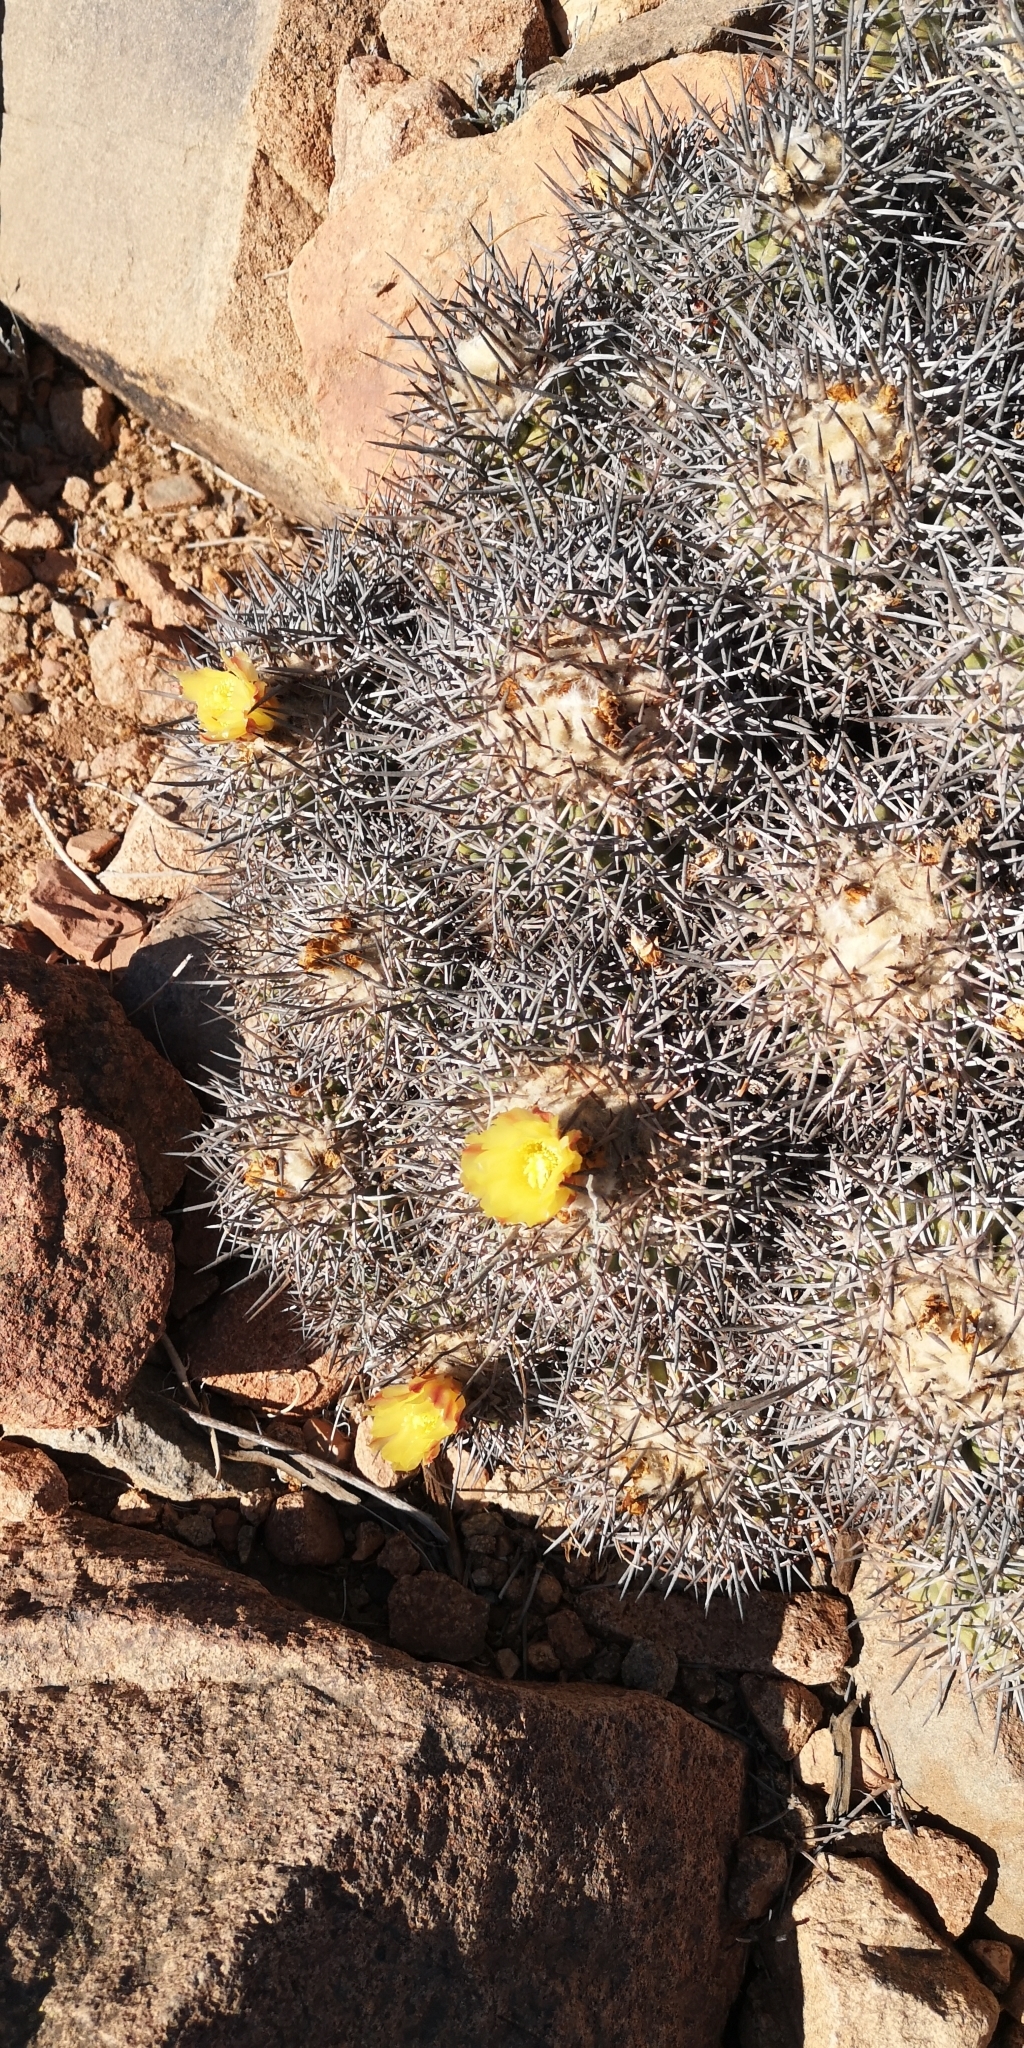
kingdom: Plantae
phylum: Tracheophyta
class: Magnoliopsida
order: Caryophyllales
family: Cactaceae
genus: Copiapoa
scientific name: Copiapoa coquimbana
